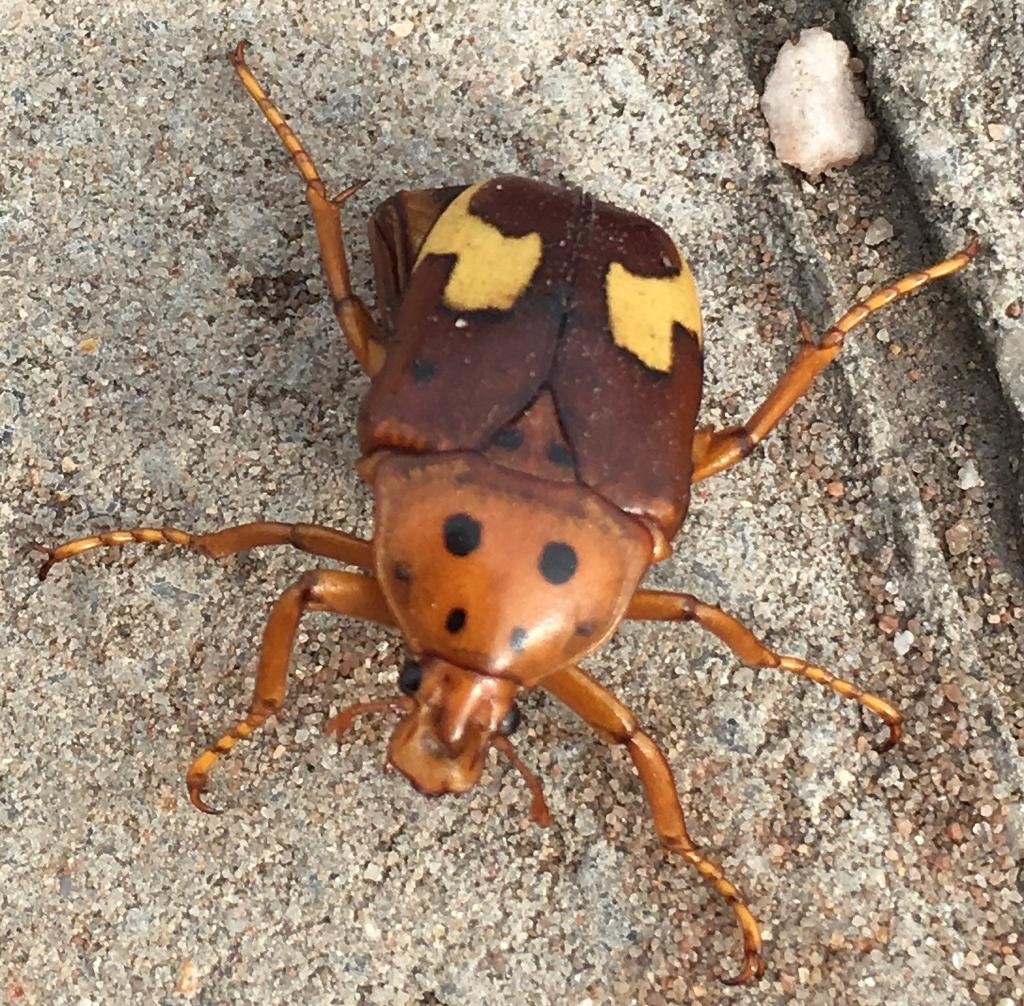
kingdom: Animalia
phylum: Arthropoda
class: Insecta
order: Coleoptera
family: Scarabaeidae
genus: Anisorrhina
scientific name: Anisorrhina flavomaculata
